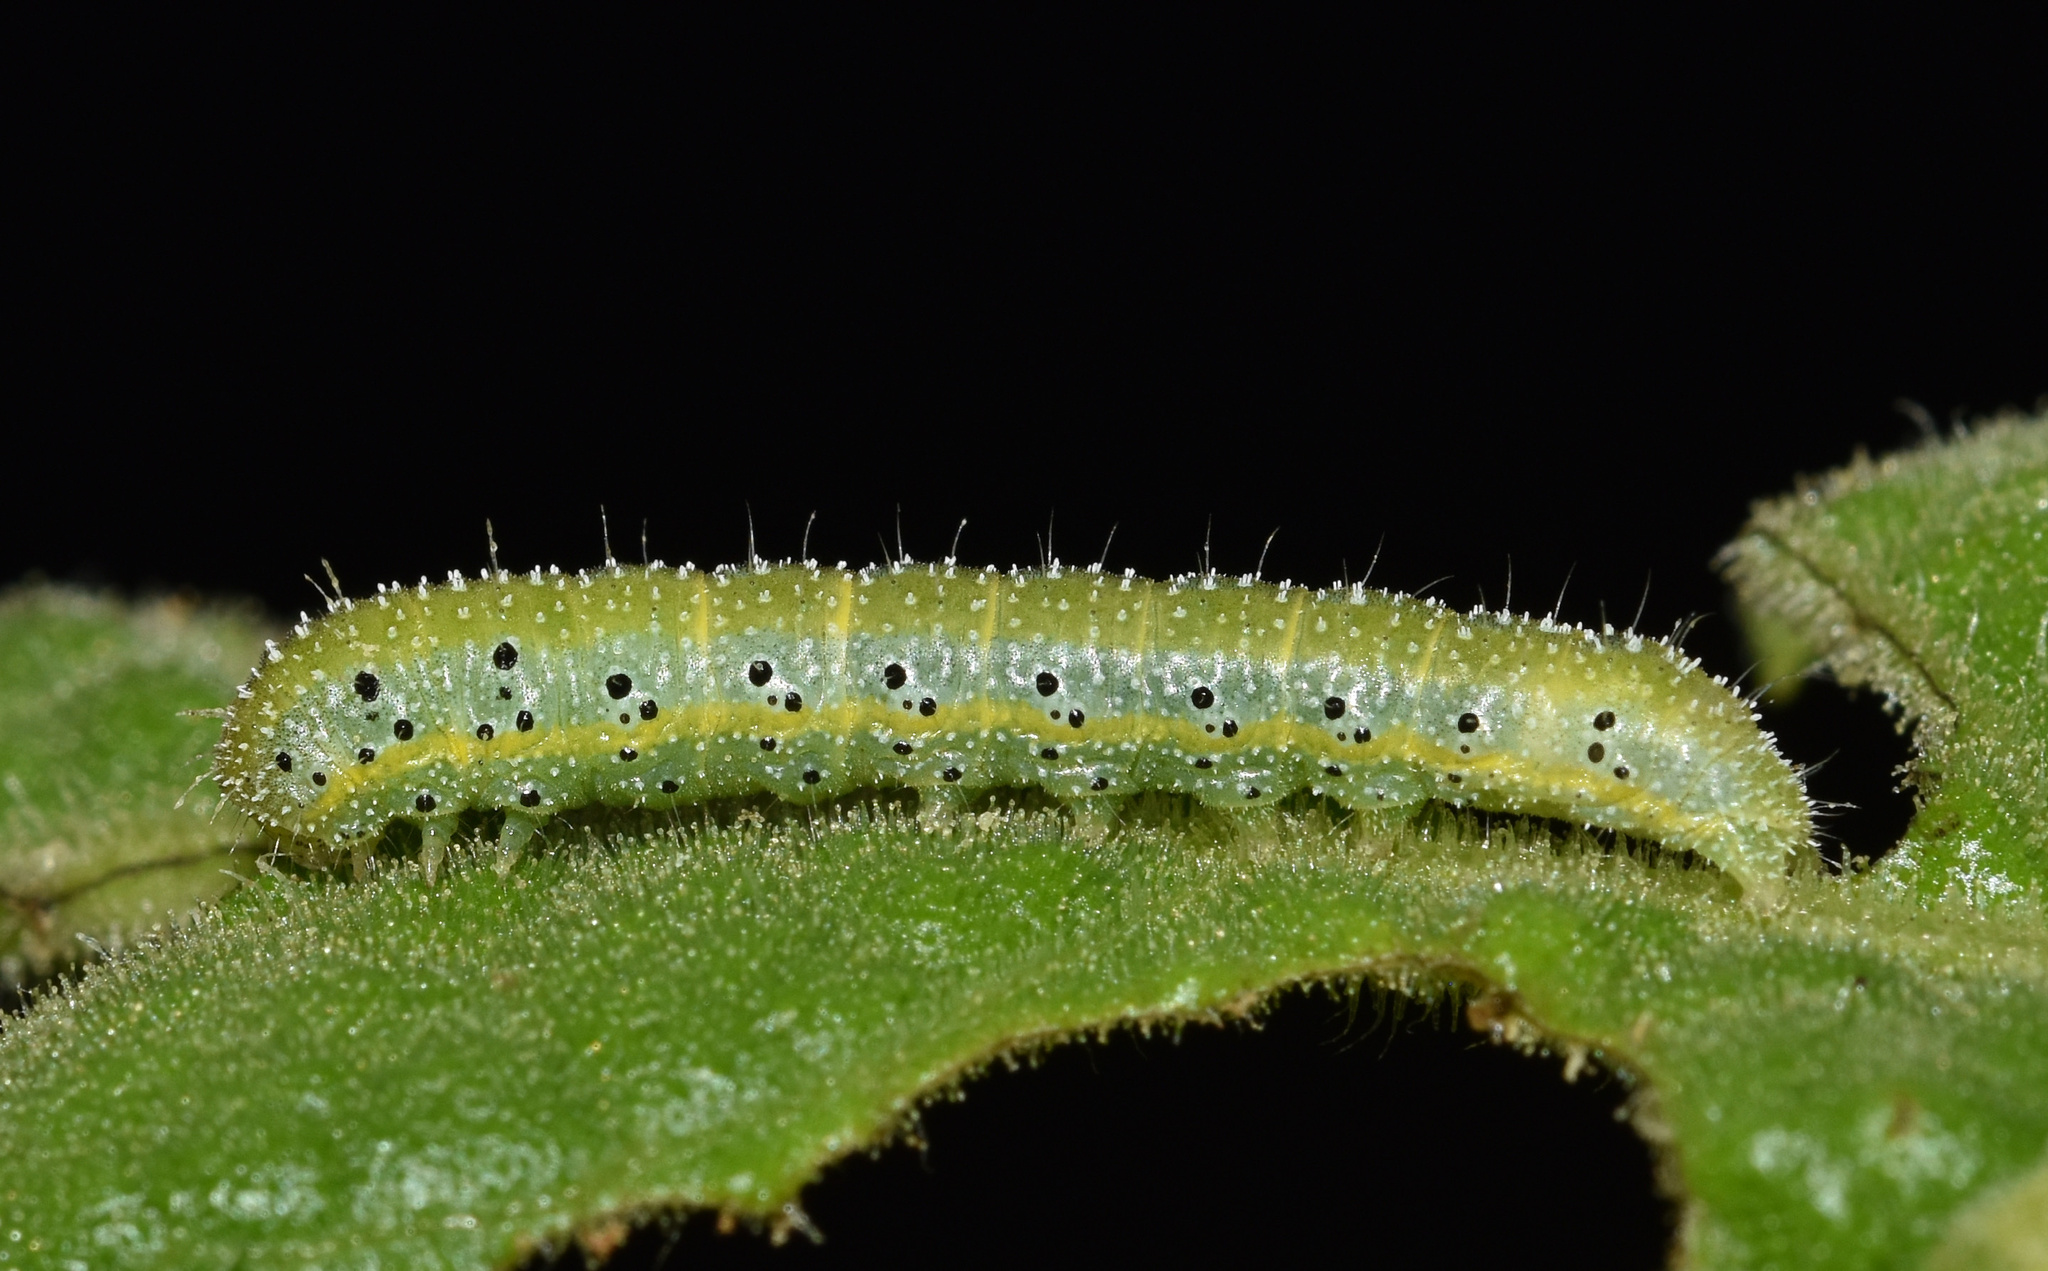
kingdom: Animalia
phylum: Arthropoda
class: Insecta
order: Lepidoptera
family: Noctuidae
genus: Heliothis
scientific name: Heliothis flavigera
